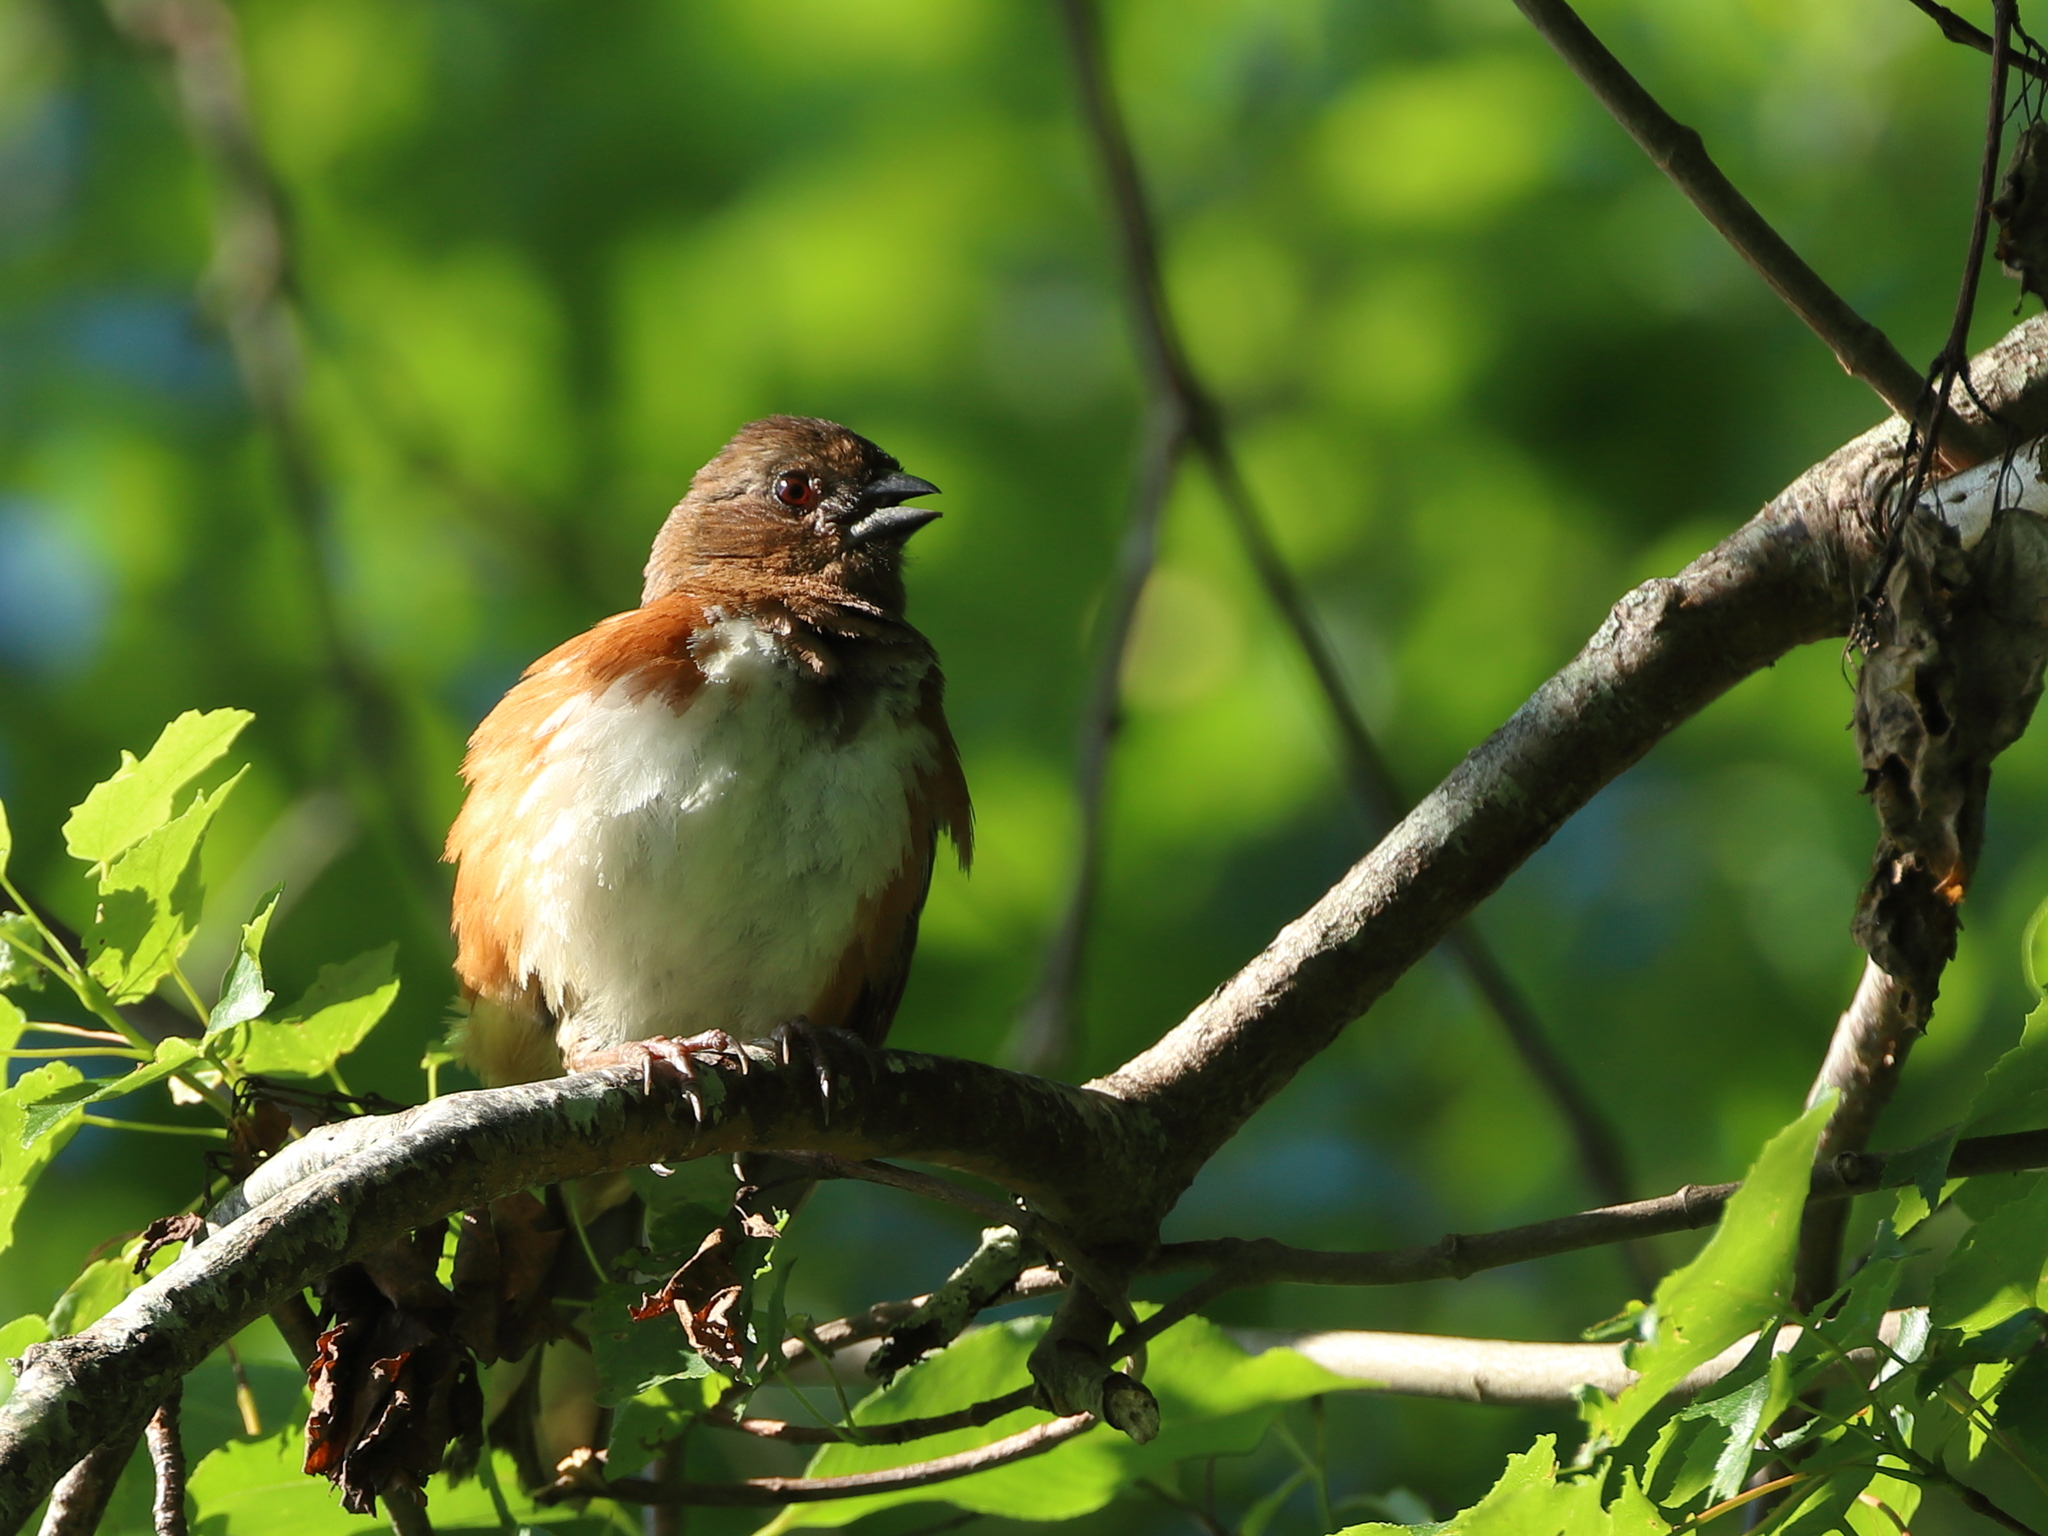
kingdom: Animalia
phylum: Chordata
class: Aves
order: Passeriformes
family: Passerellidae
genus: Pipilo
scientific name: Pipilo erythrophthalmus
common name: Eastern towhee
